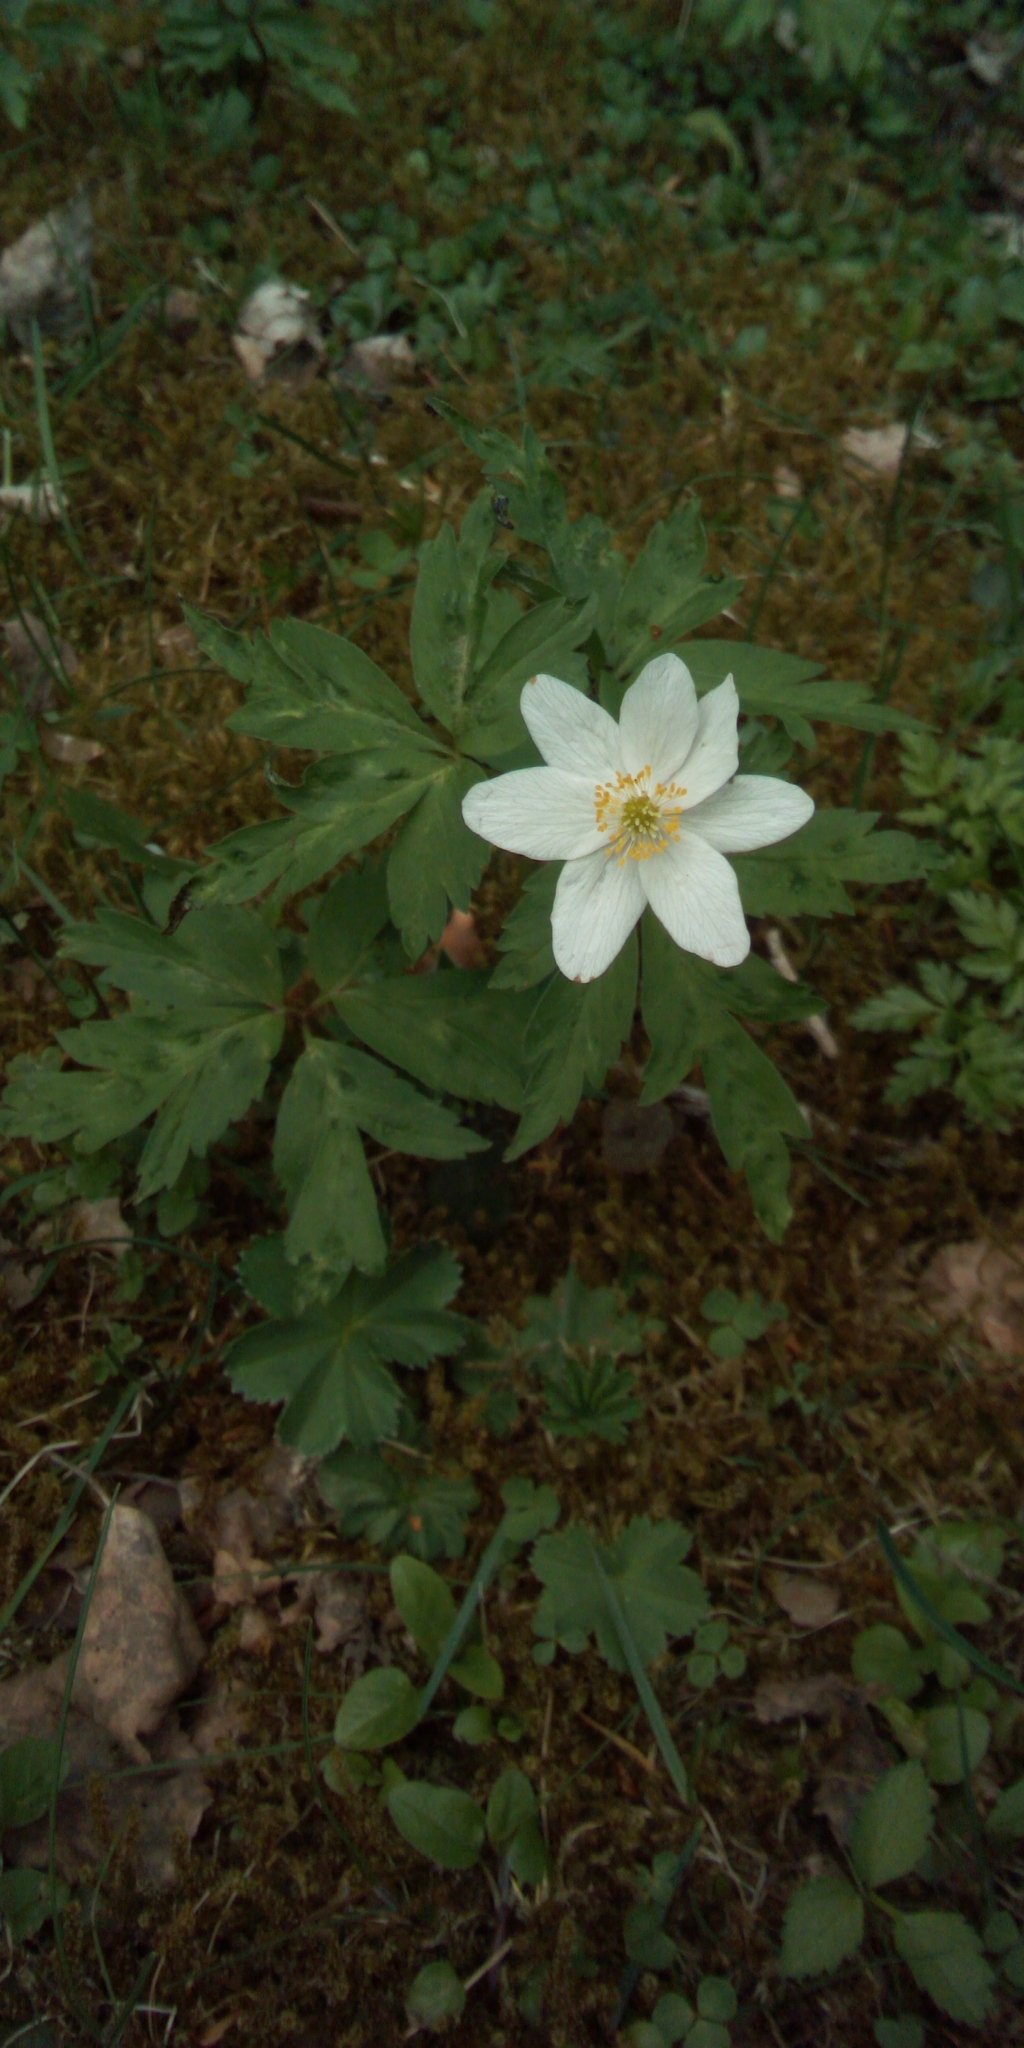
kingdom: Plantae
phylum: Tracheophyta
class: Magnoliopsida
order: Ranunculales
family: Ranunculaceae
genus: Anemone
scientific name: Anemone nemorosa
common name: Wood anemone
